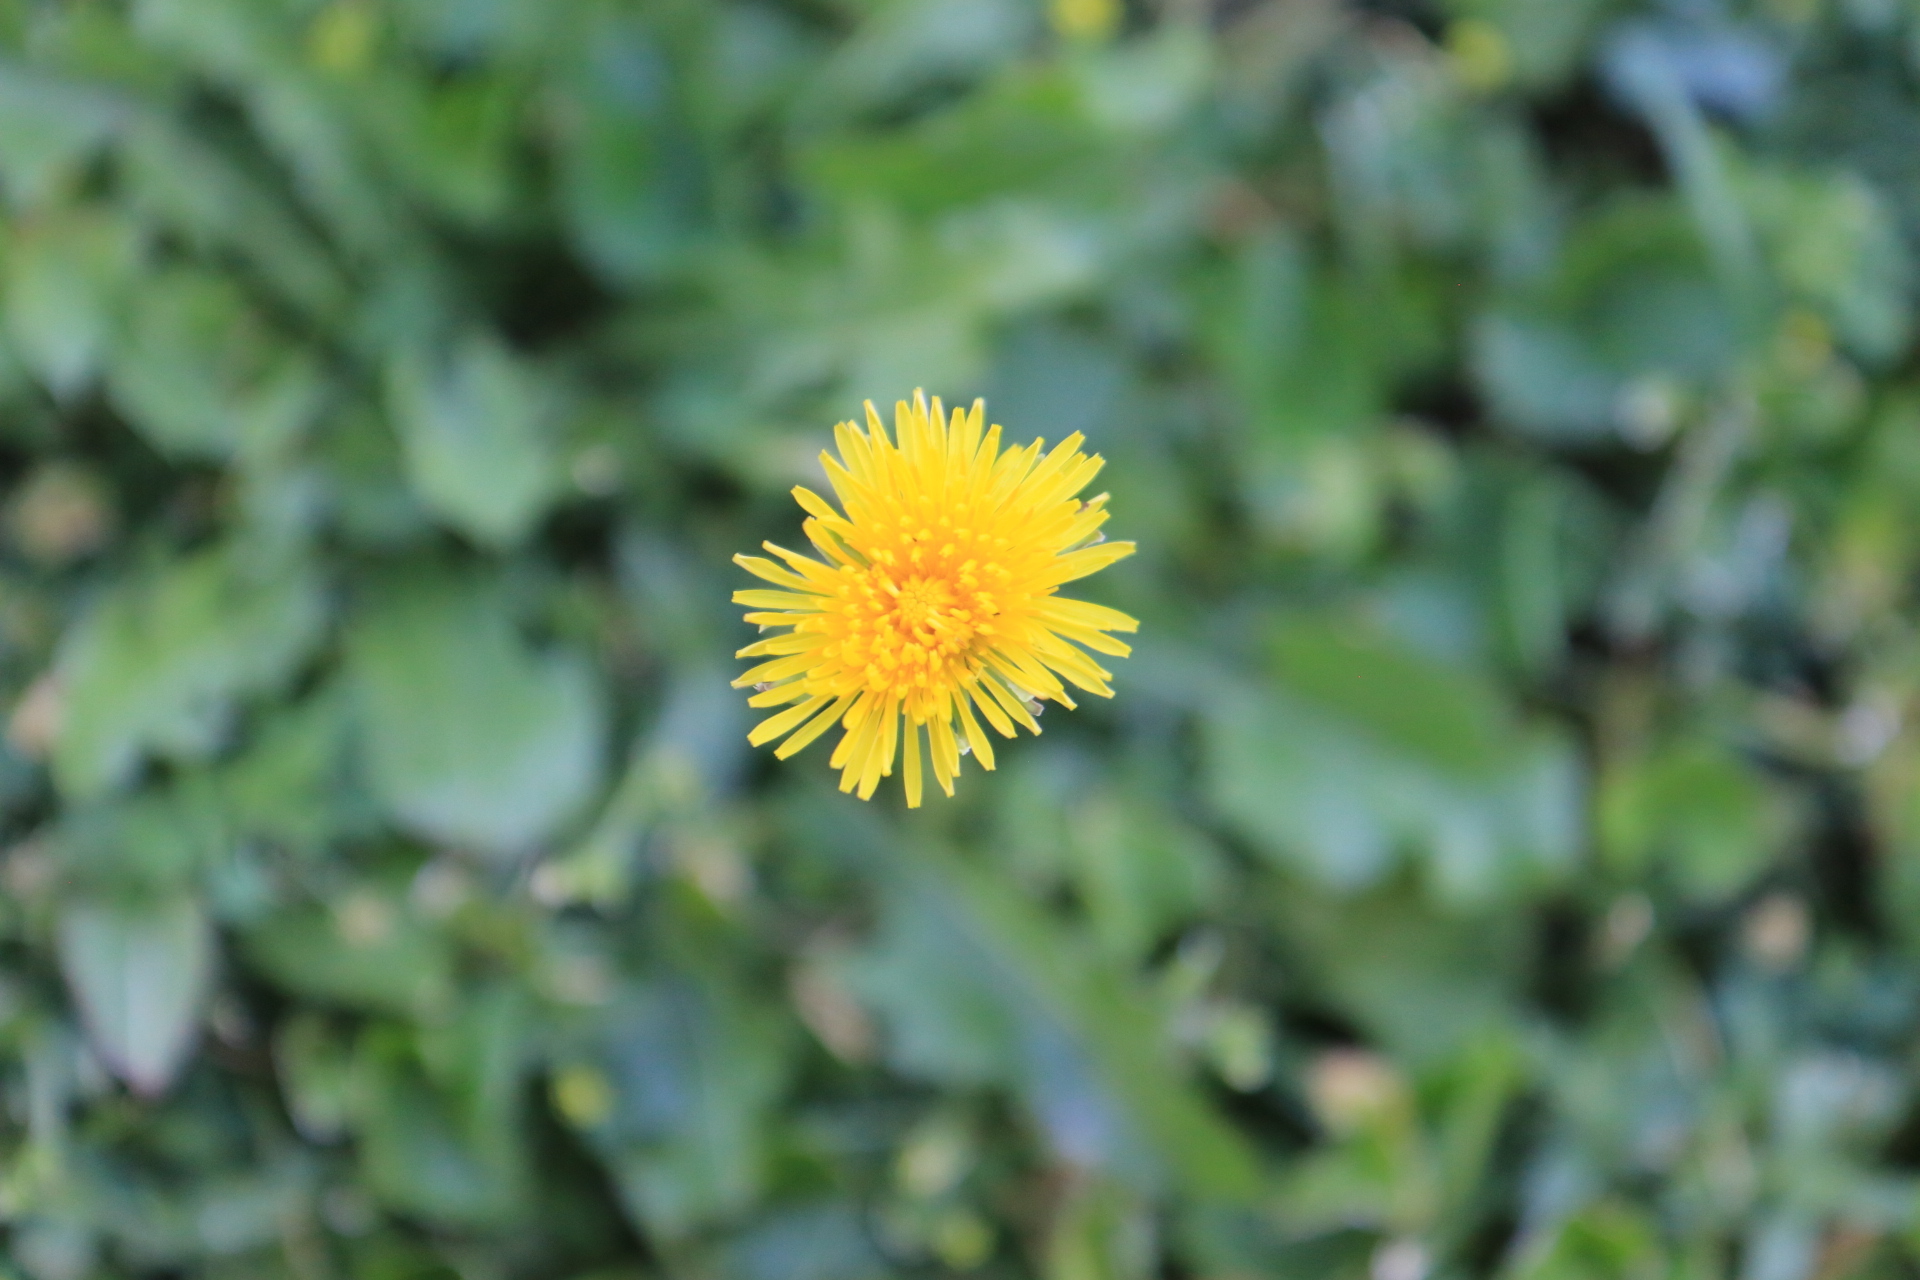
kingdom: Plantae
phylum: Tracheophyta
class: Magnoliopsida
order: Asterales
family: Asteraceae
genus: Taraxacum
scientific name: Taraxacum officinale
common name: Common dandelion
